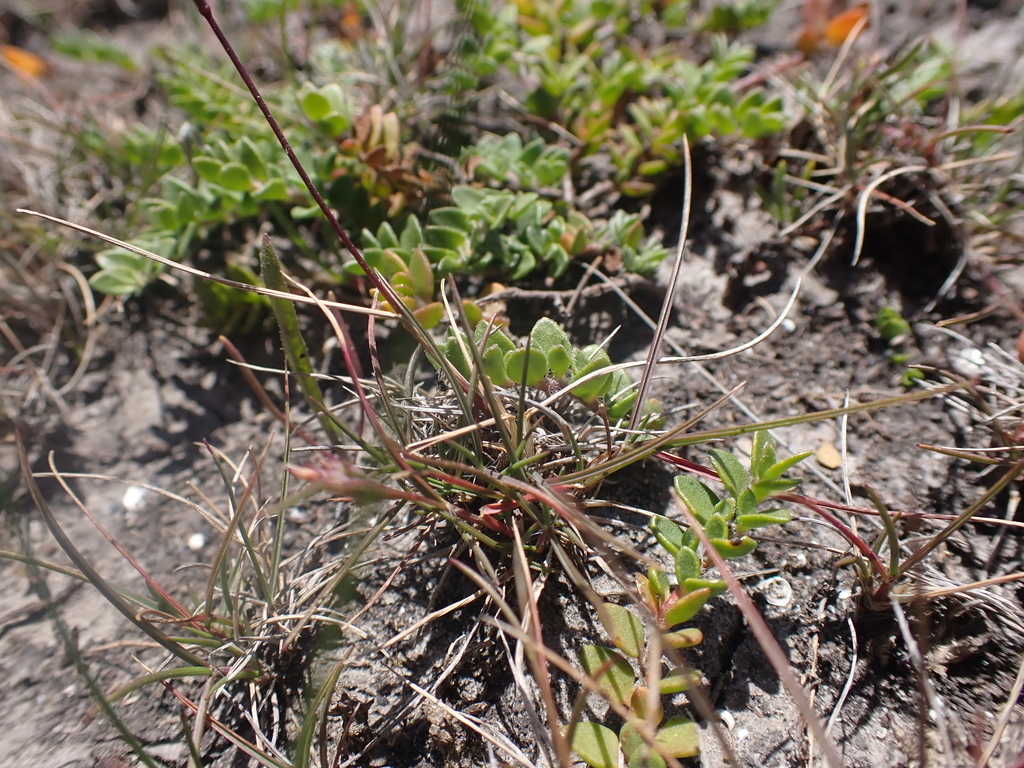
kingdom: Plantae
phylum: Tracheophyta
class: Liliopsida
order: Poales
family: Poaceae
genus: Tribolium
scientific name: Tribolium obliterum
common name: Capetown grass
